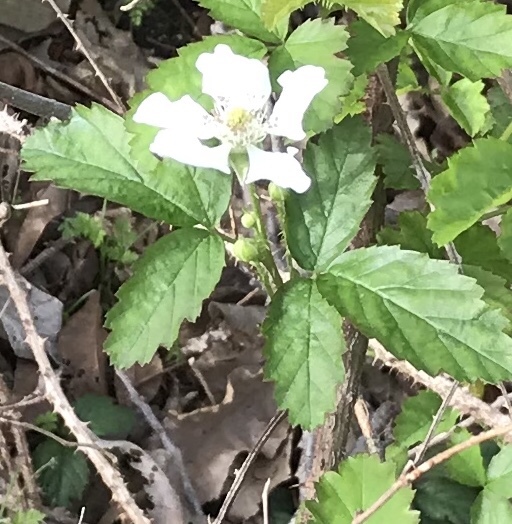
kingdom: Plantae
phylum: Tracheophyta
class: Magnoliopsida
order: Rosales
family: Rosaceae
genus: Rubus
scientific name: Rubus trivialis
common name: Southern dewberry
